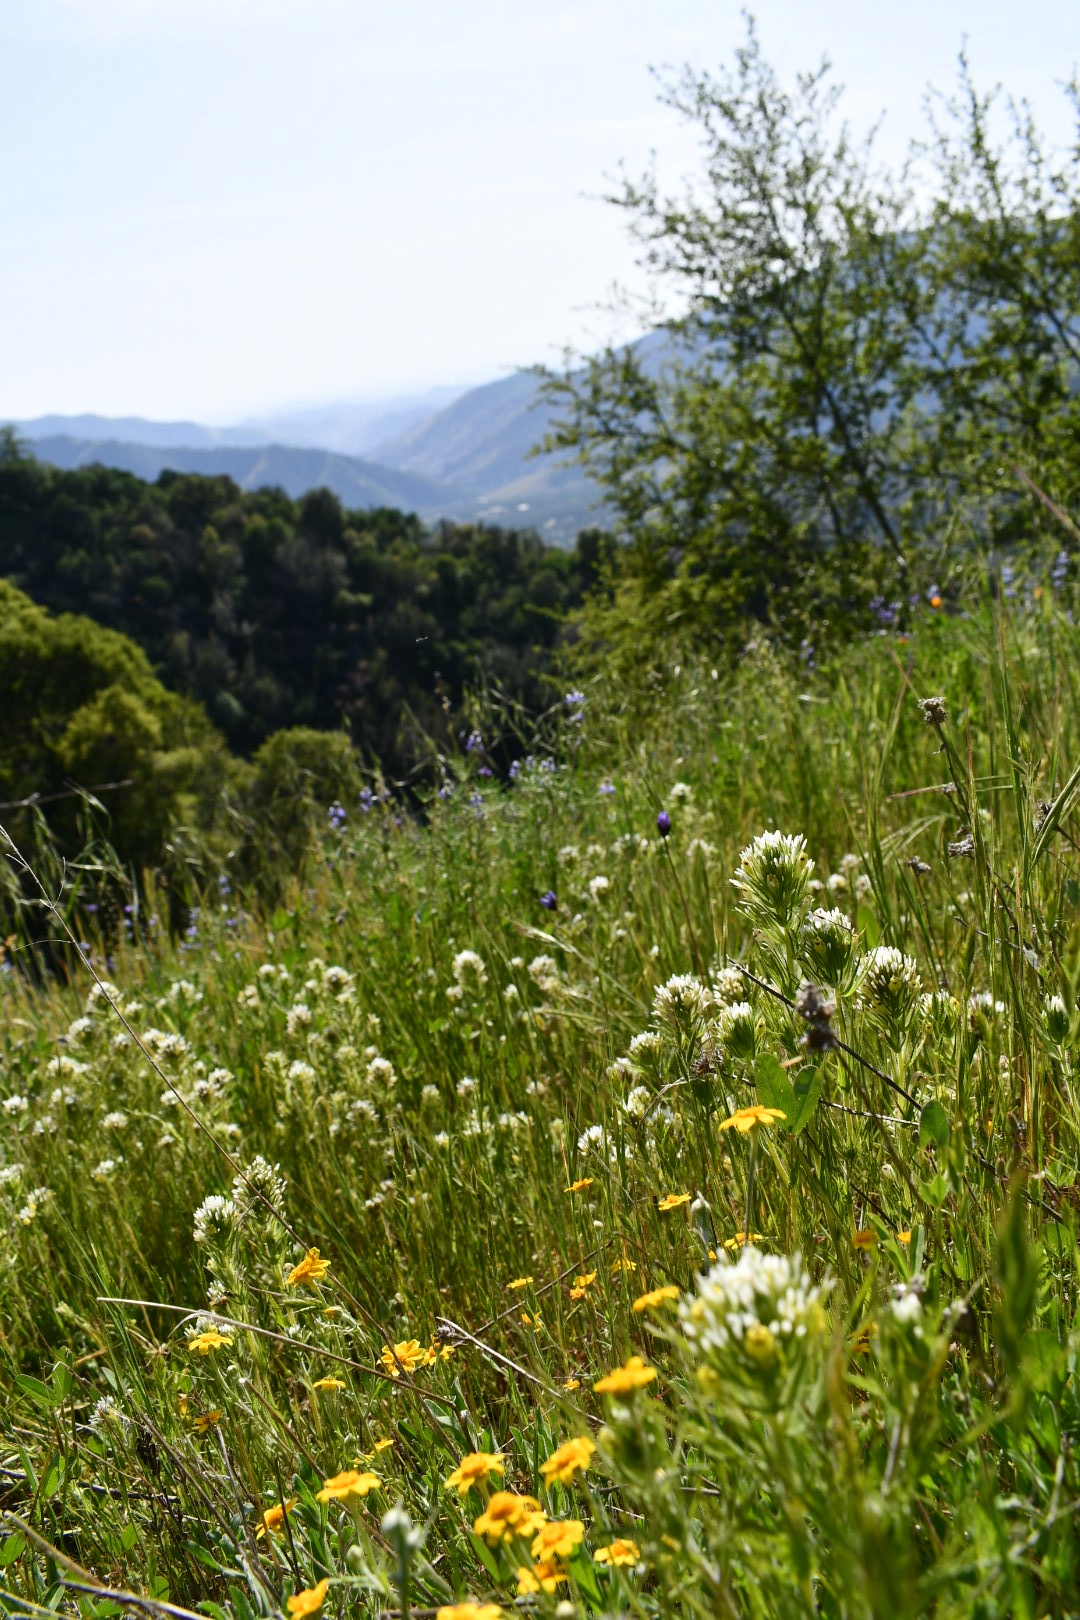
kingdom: Plantae
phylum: Tracheophyta
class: Magnoliopsida
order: Lamiales
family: Orobanchaceae
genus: Castilleja
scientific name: Castilleja lineariloba
